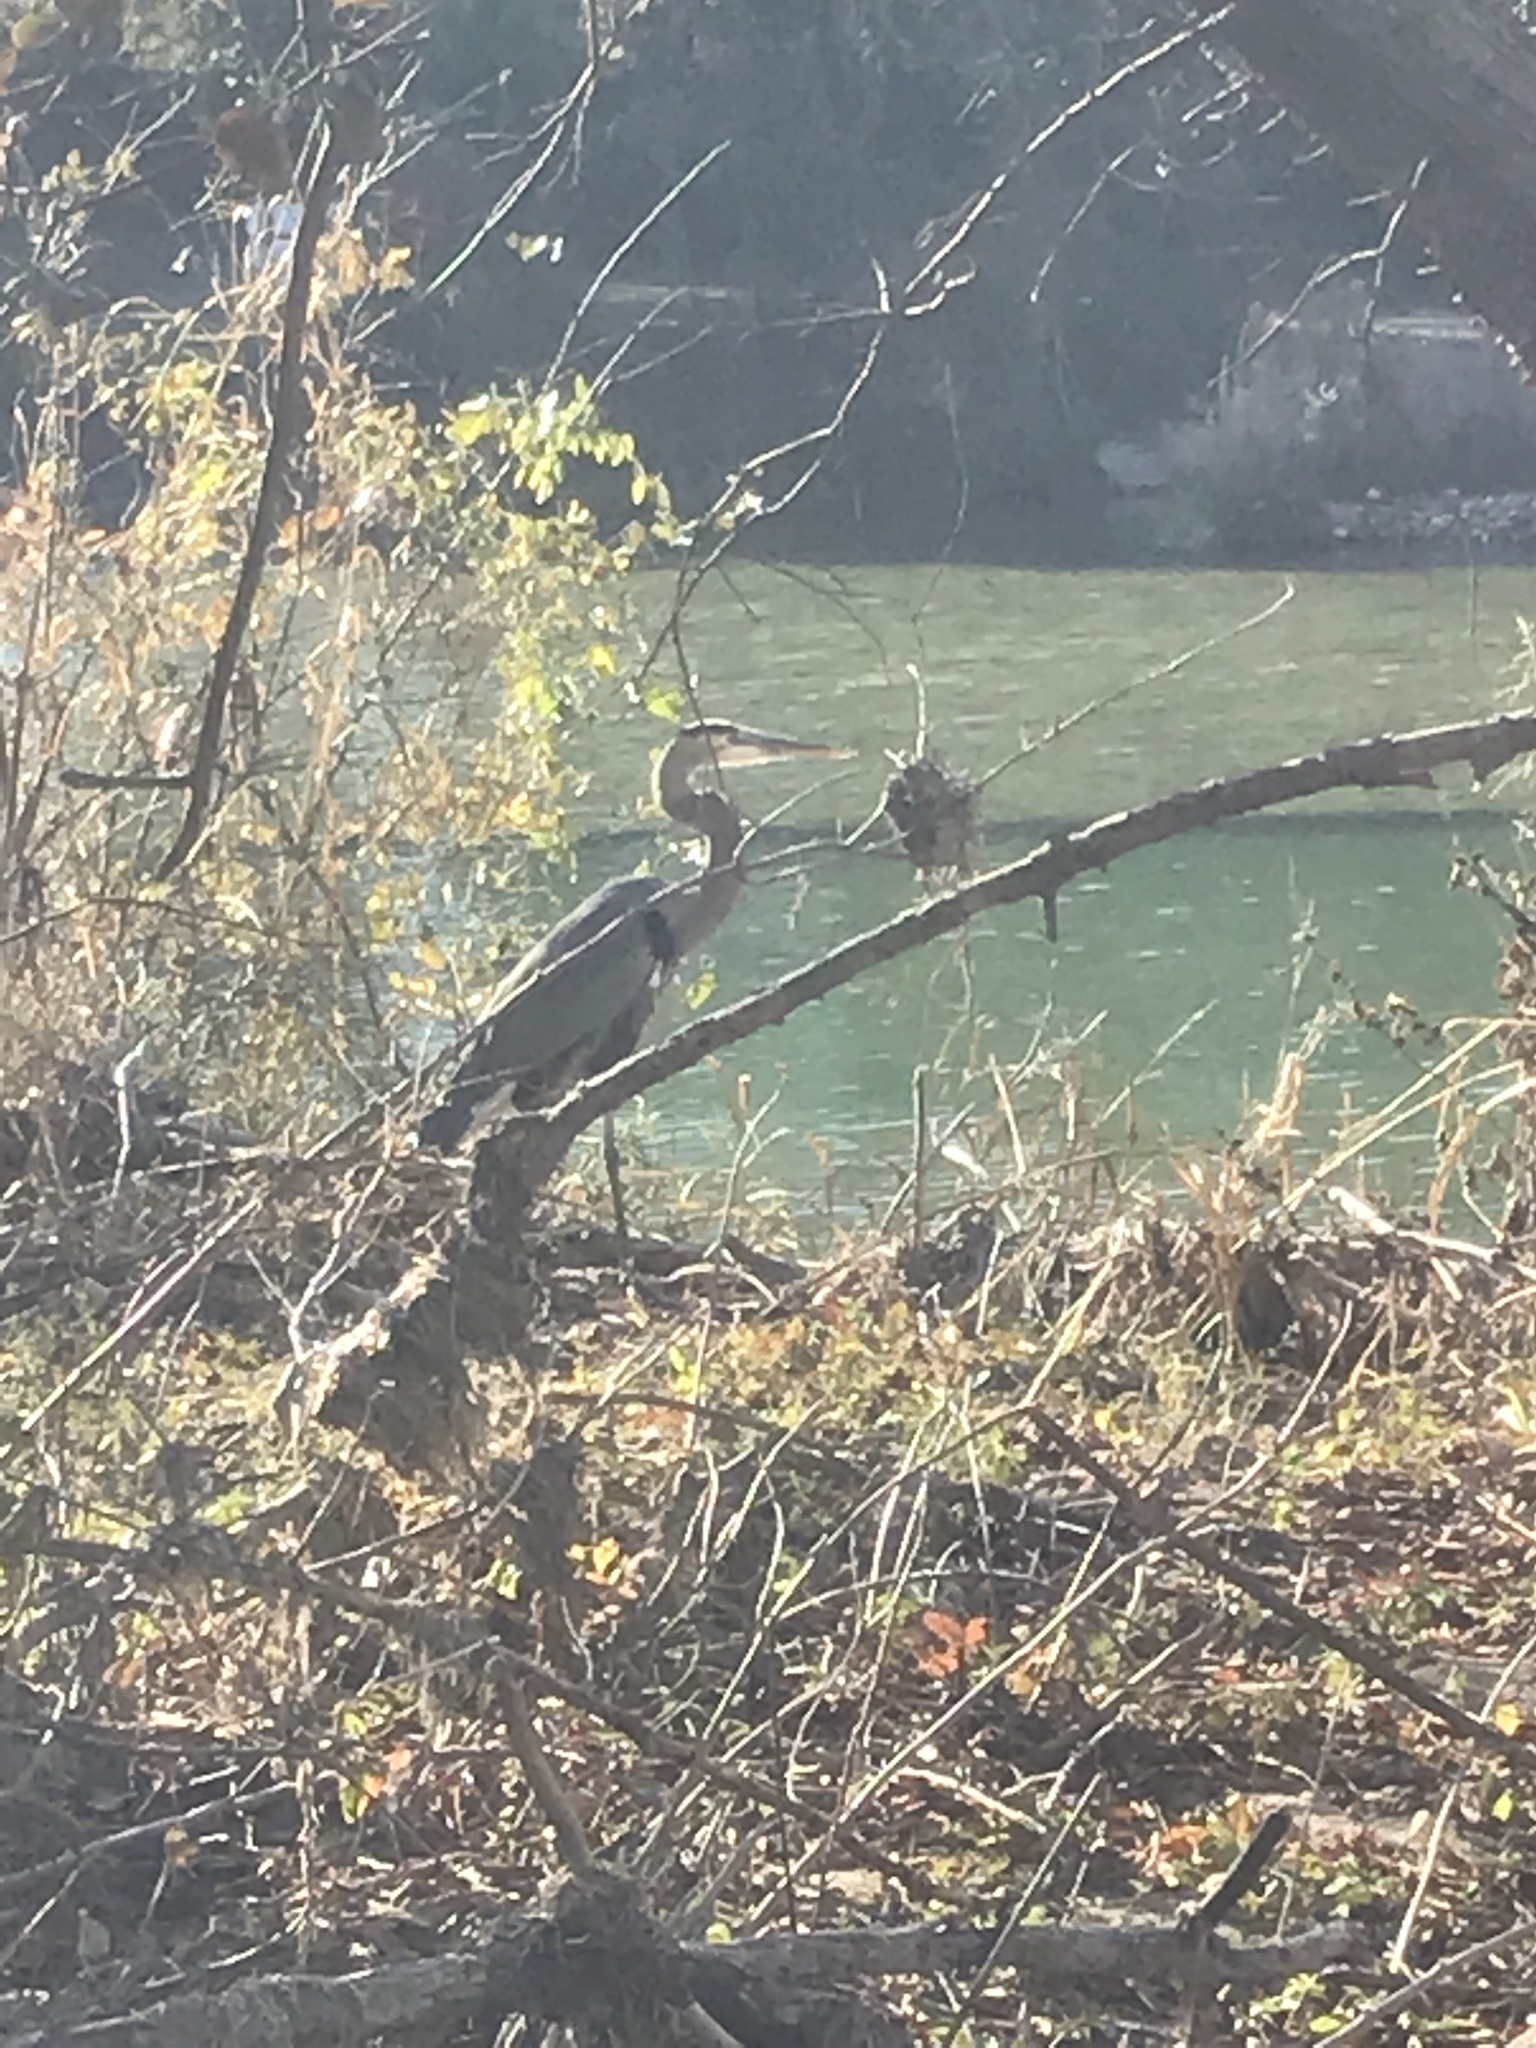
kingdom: Animalia
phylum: Chordata
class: Aves
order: Pelecaniformes
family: Ardeidae
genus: Ardea
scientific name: Ardea herodias
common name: Great blue heron
